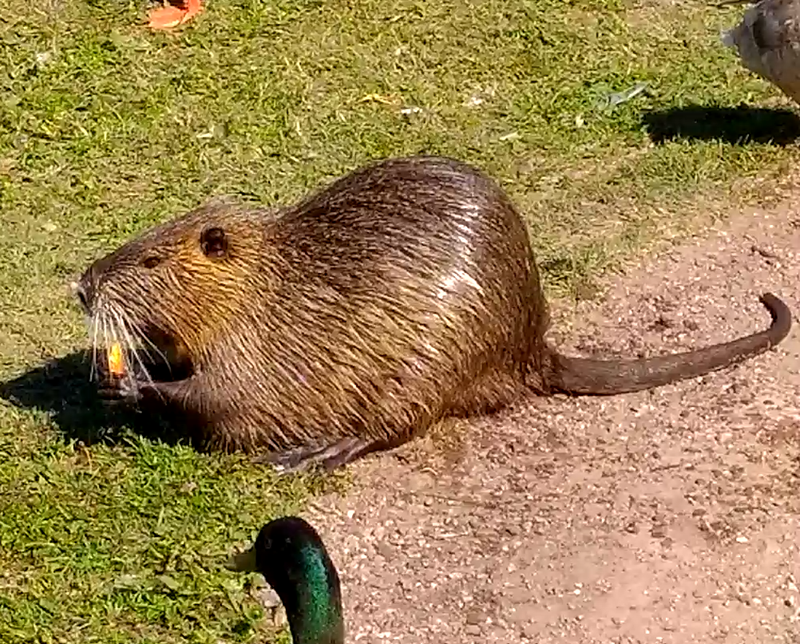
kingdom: Animalia
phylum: Chordata
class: Mammalia
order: Rodentia
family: Myocastoridae
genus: Myocastor
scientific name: Myocastor coypus
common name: Coypu
